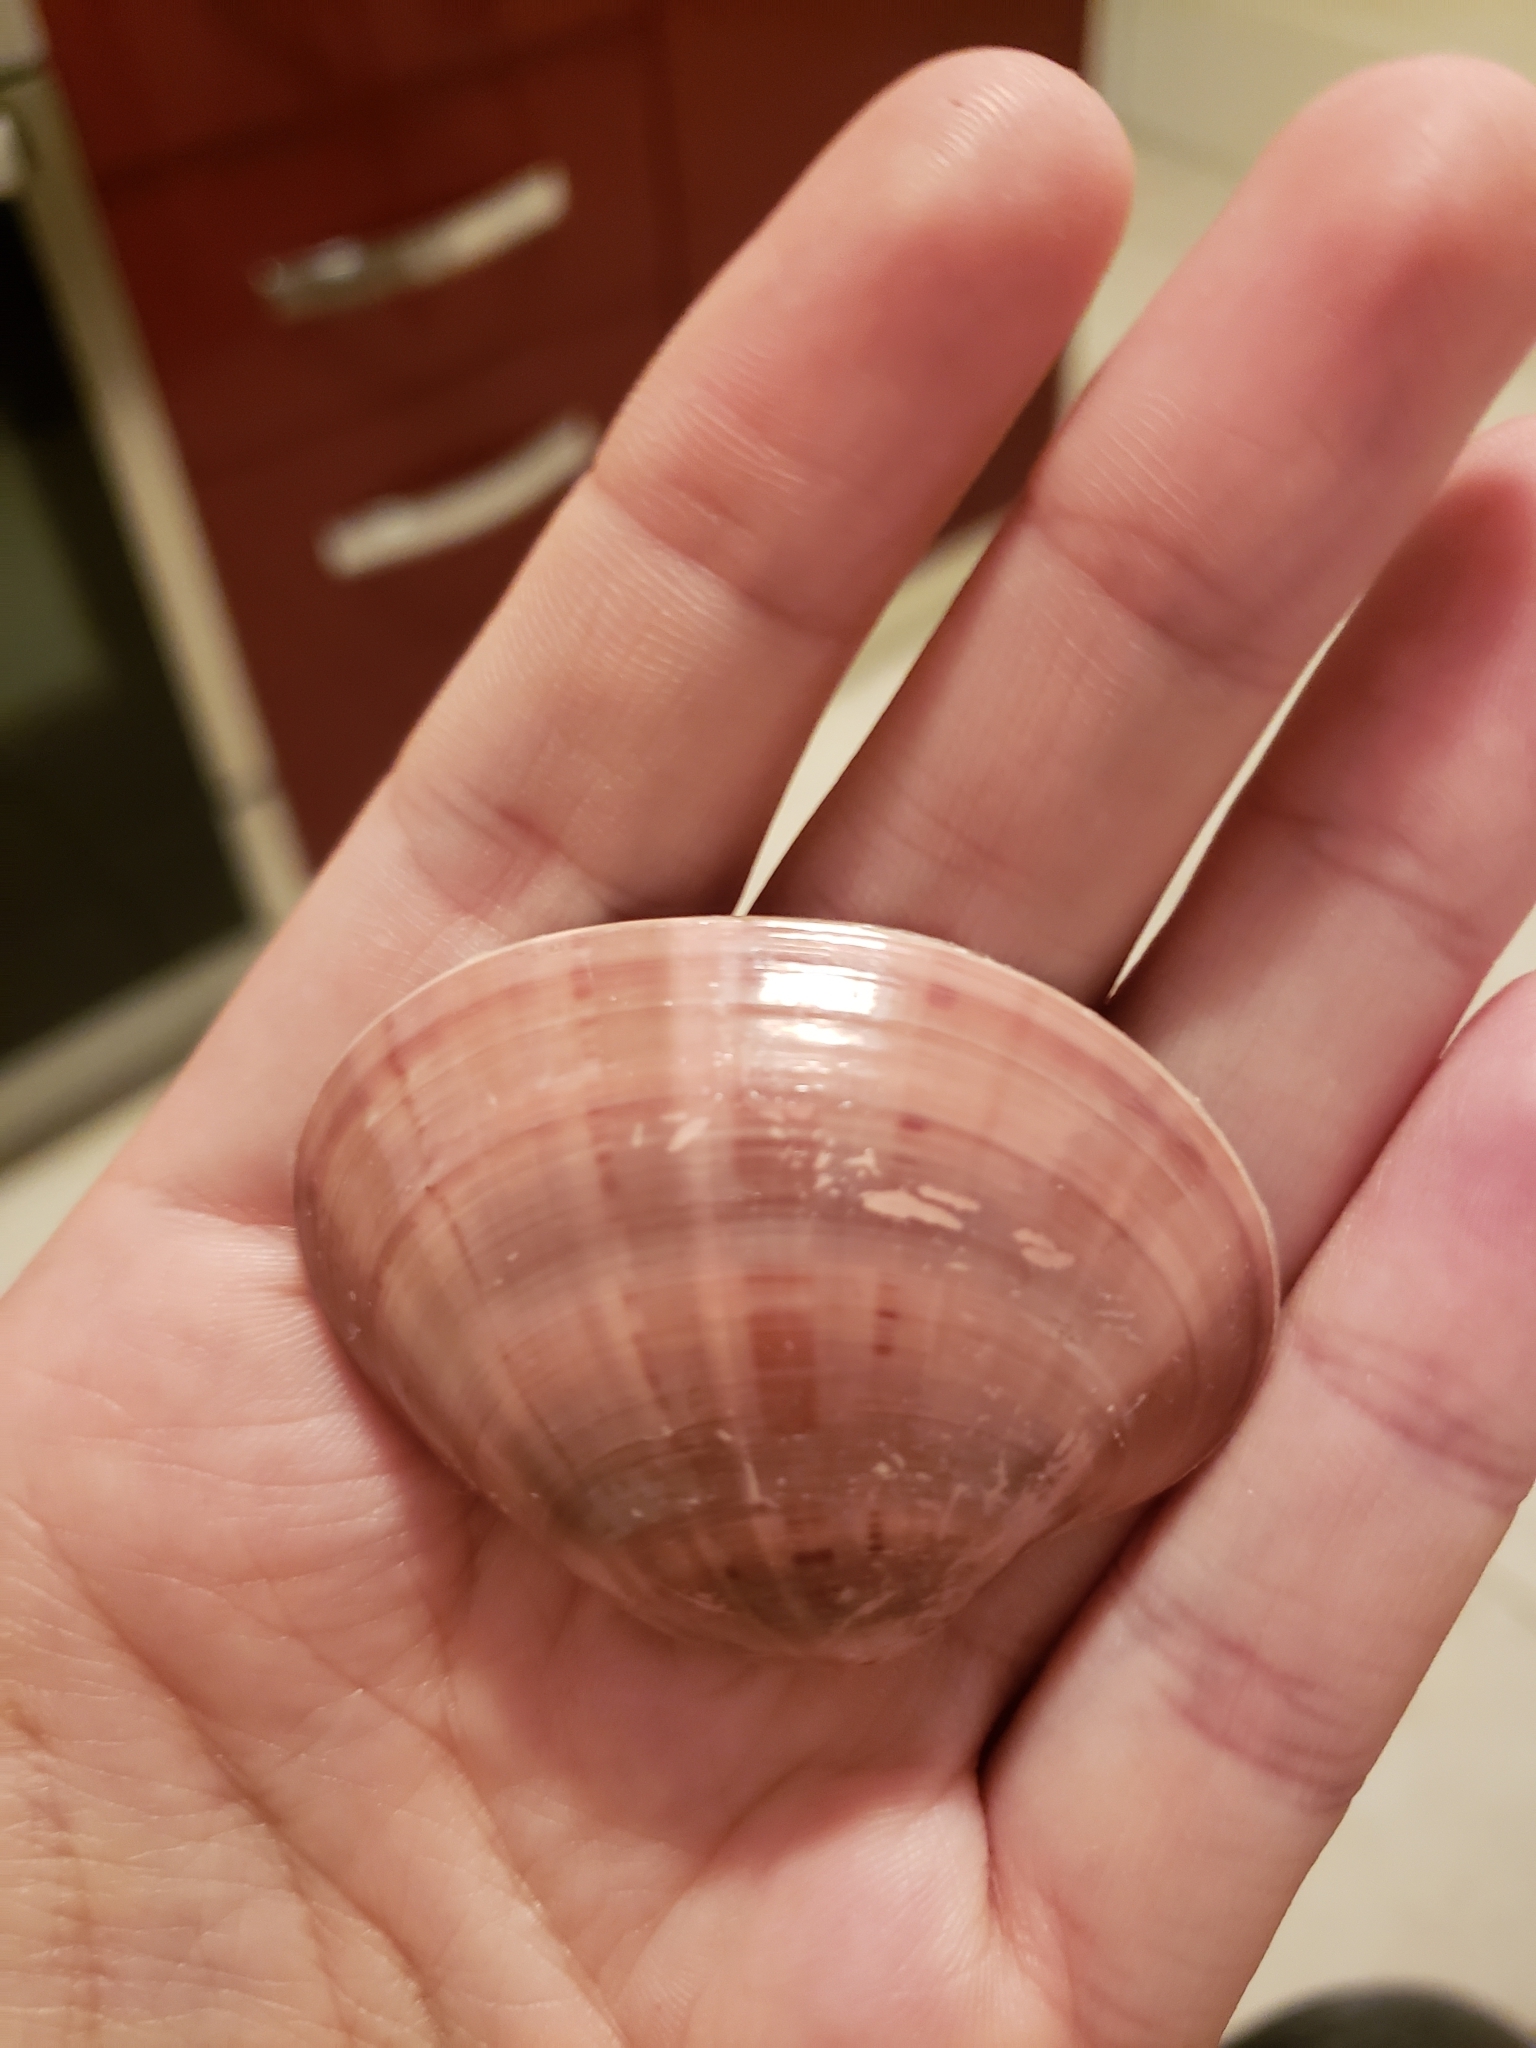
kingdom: Animalia
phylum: Mollusca
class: Bivalvia
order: Venerida
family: Veneridae
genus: Callista
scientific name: Callista chione
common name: Brown venus
